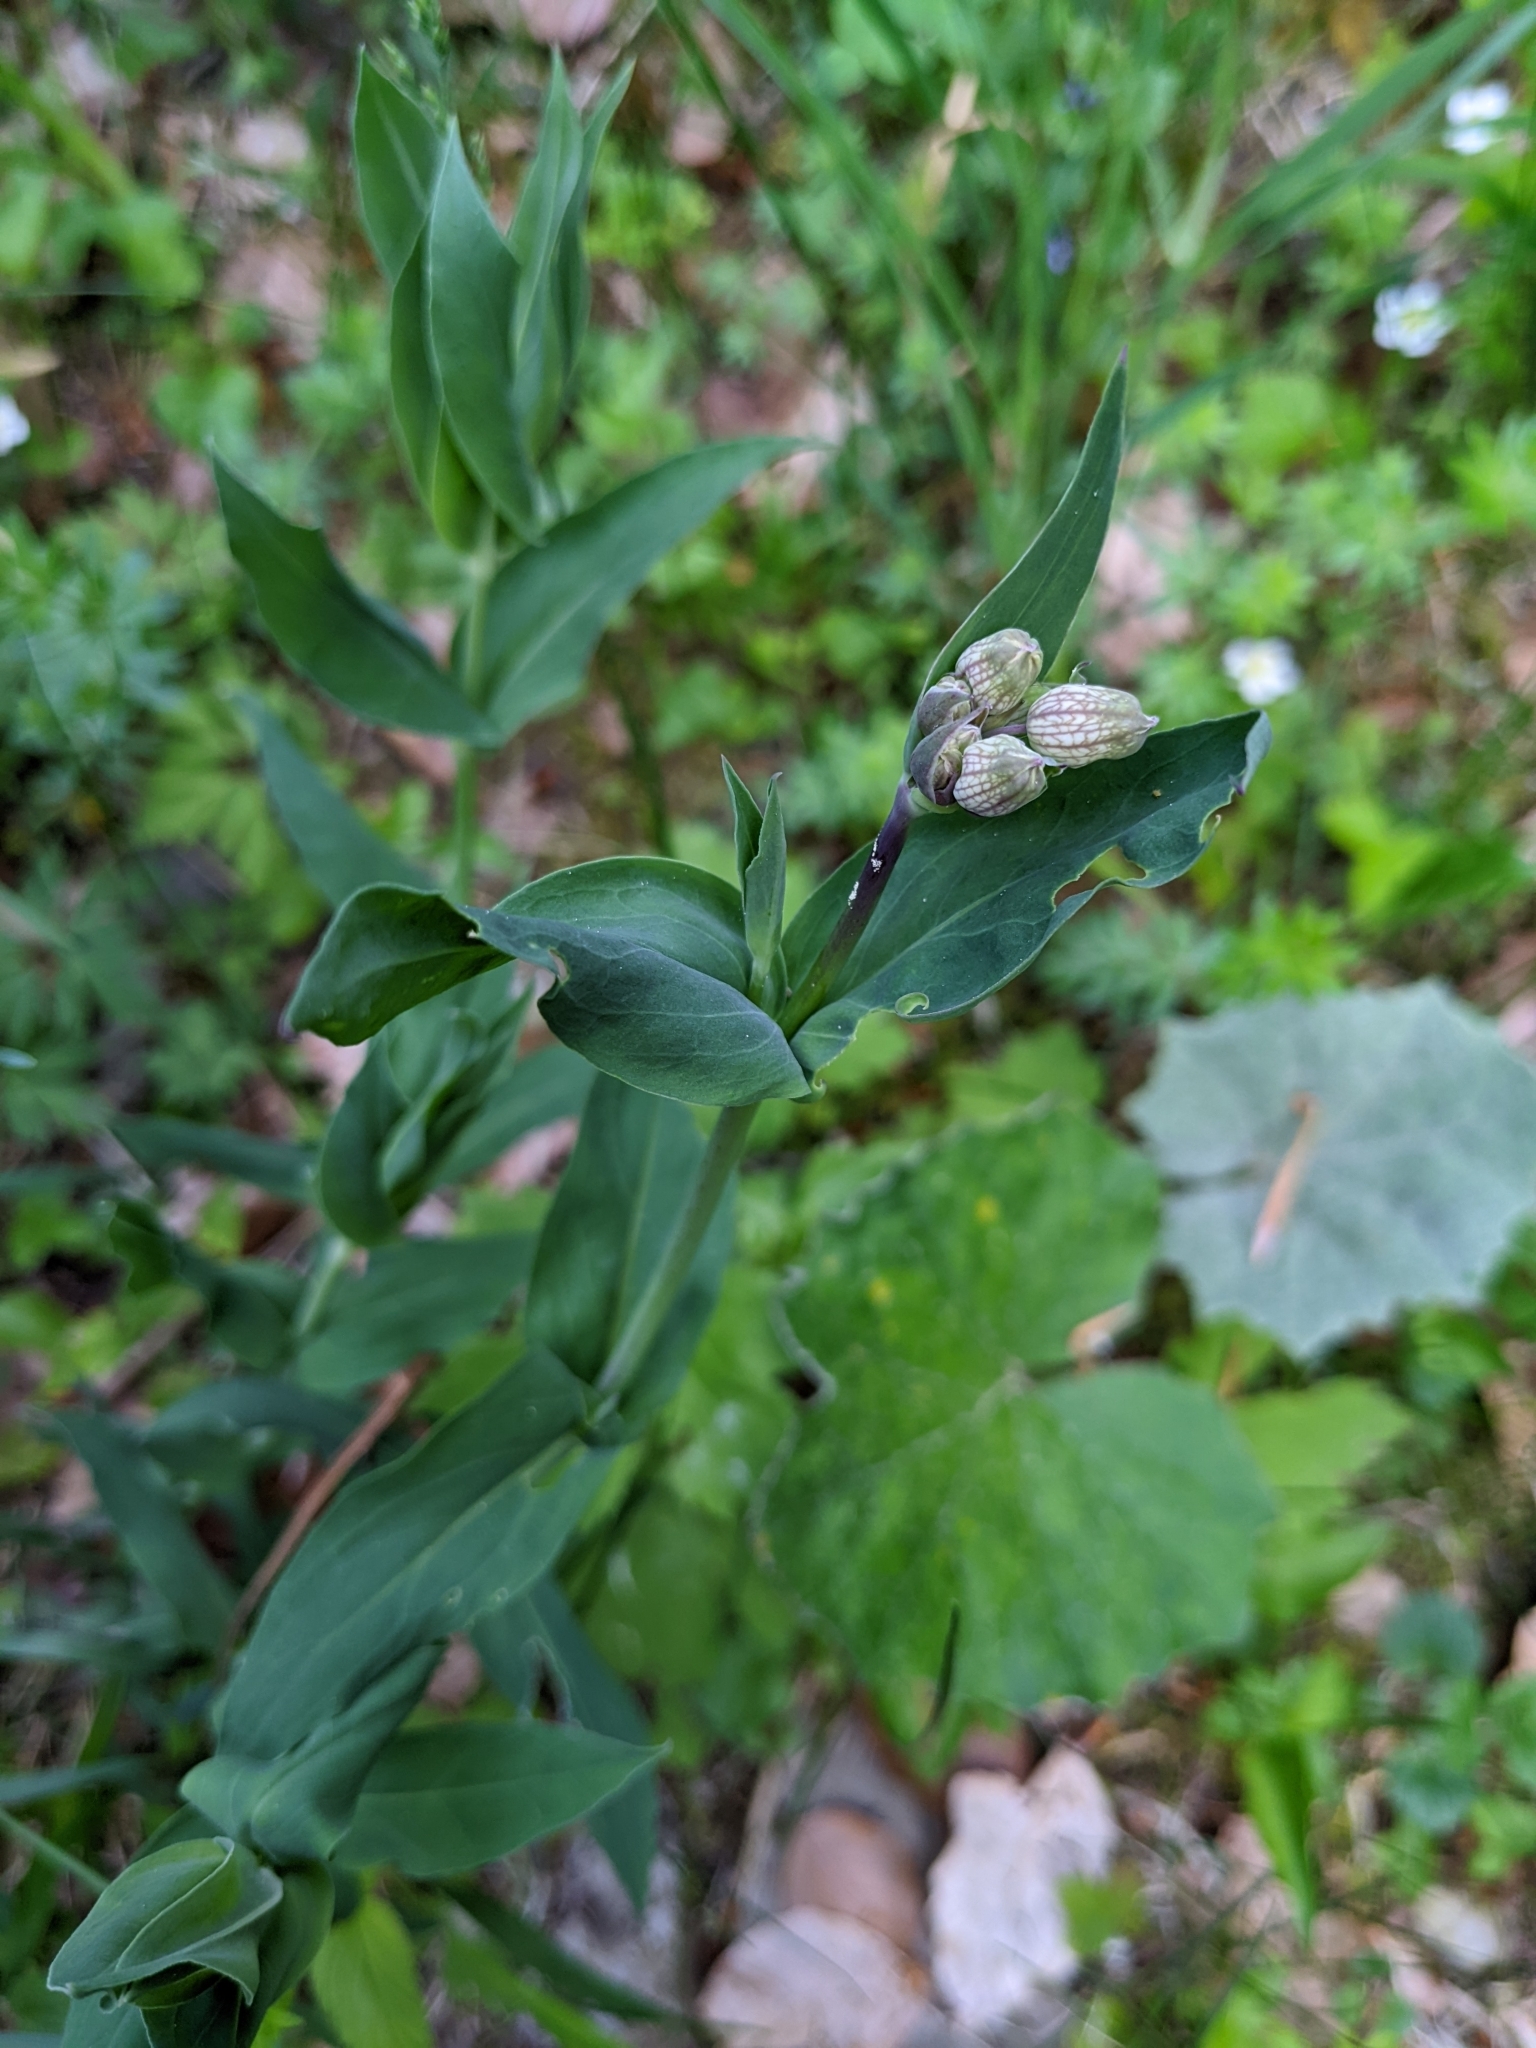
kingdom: Plantae
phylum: Tracheophyta
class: Magnoliopsida
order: Caryophyllales
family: Caryophyllaceae
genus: Silene
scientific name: Silene vulgaris
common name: Bladder campion
